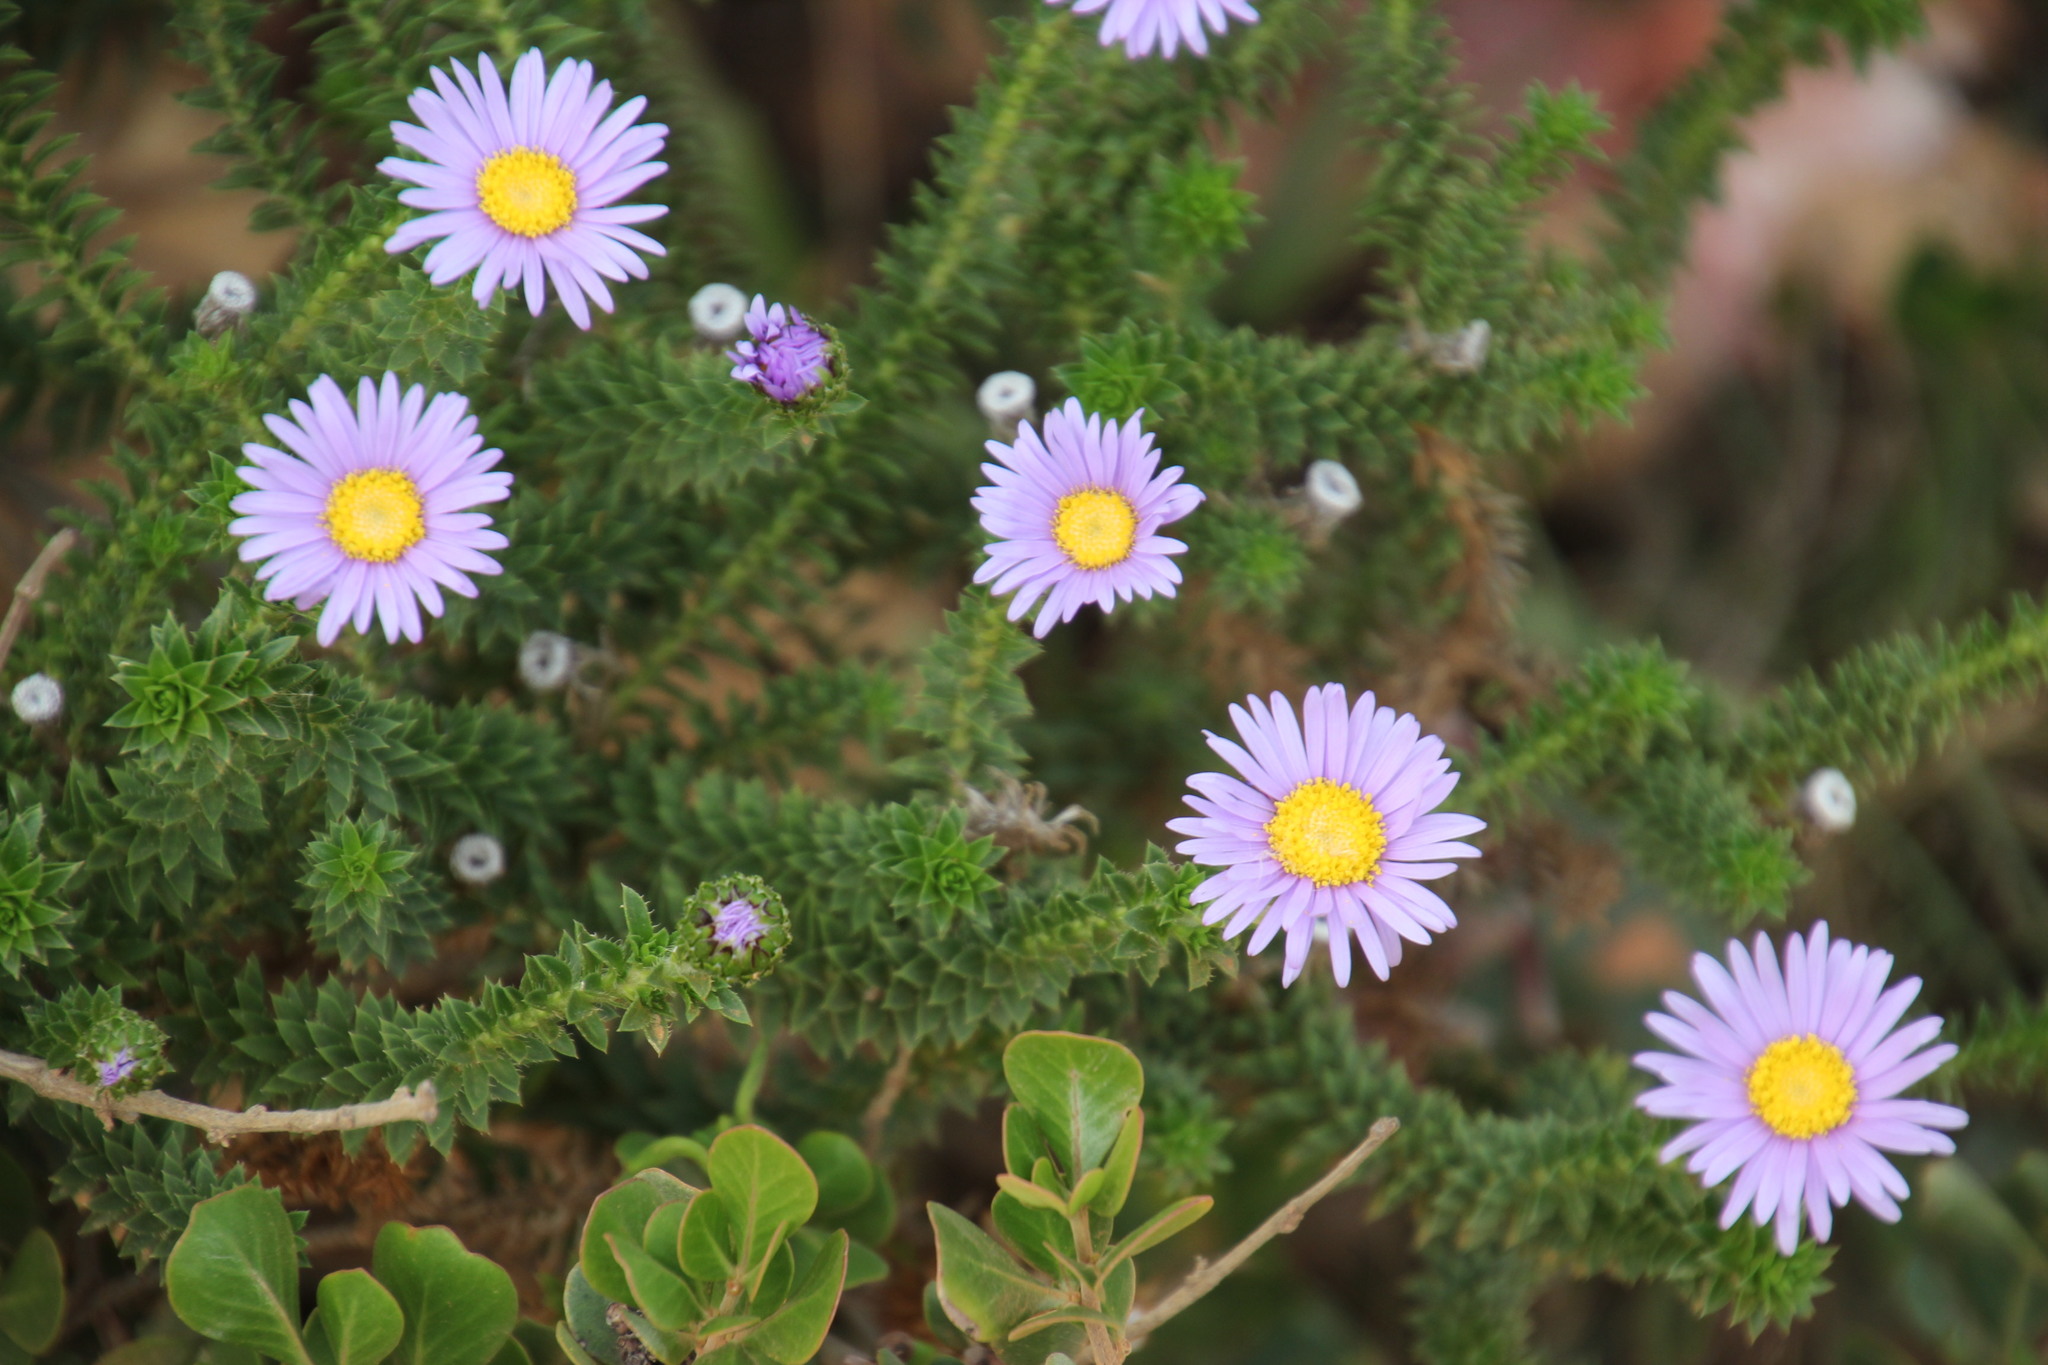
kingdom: Plantae
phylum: Tracheophyta
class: Magnoliopsida
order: Asterales
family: Asteraceae
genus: Felicia
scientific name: Felicia echinata
